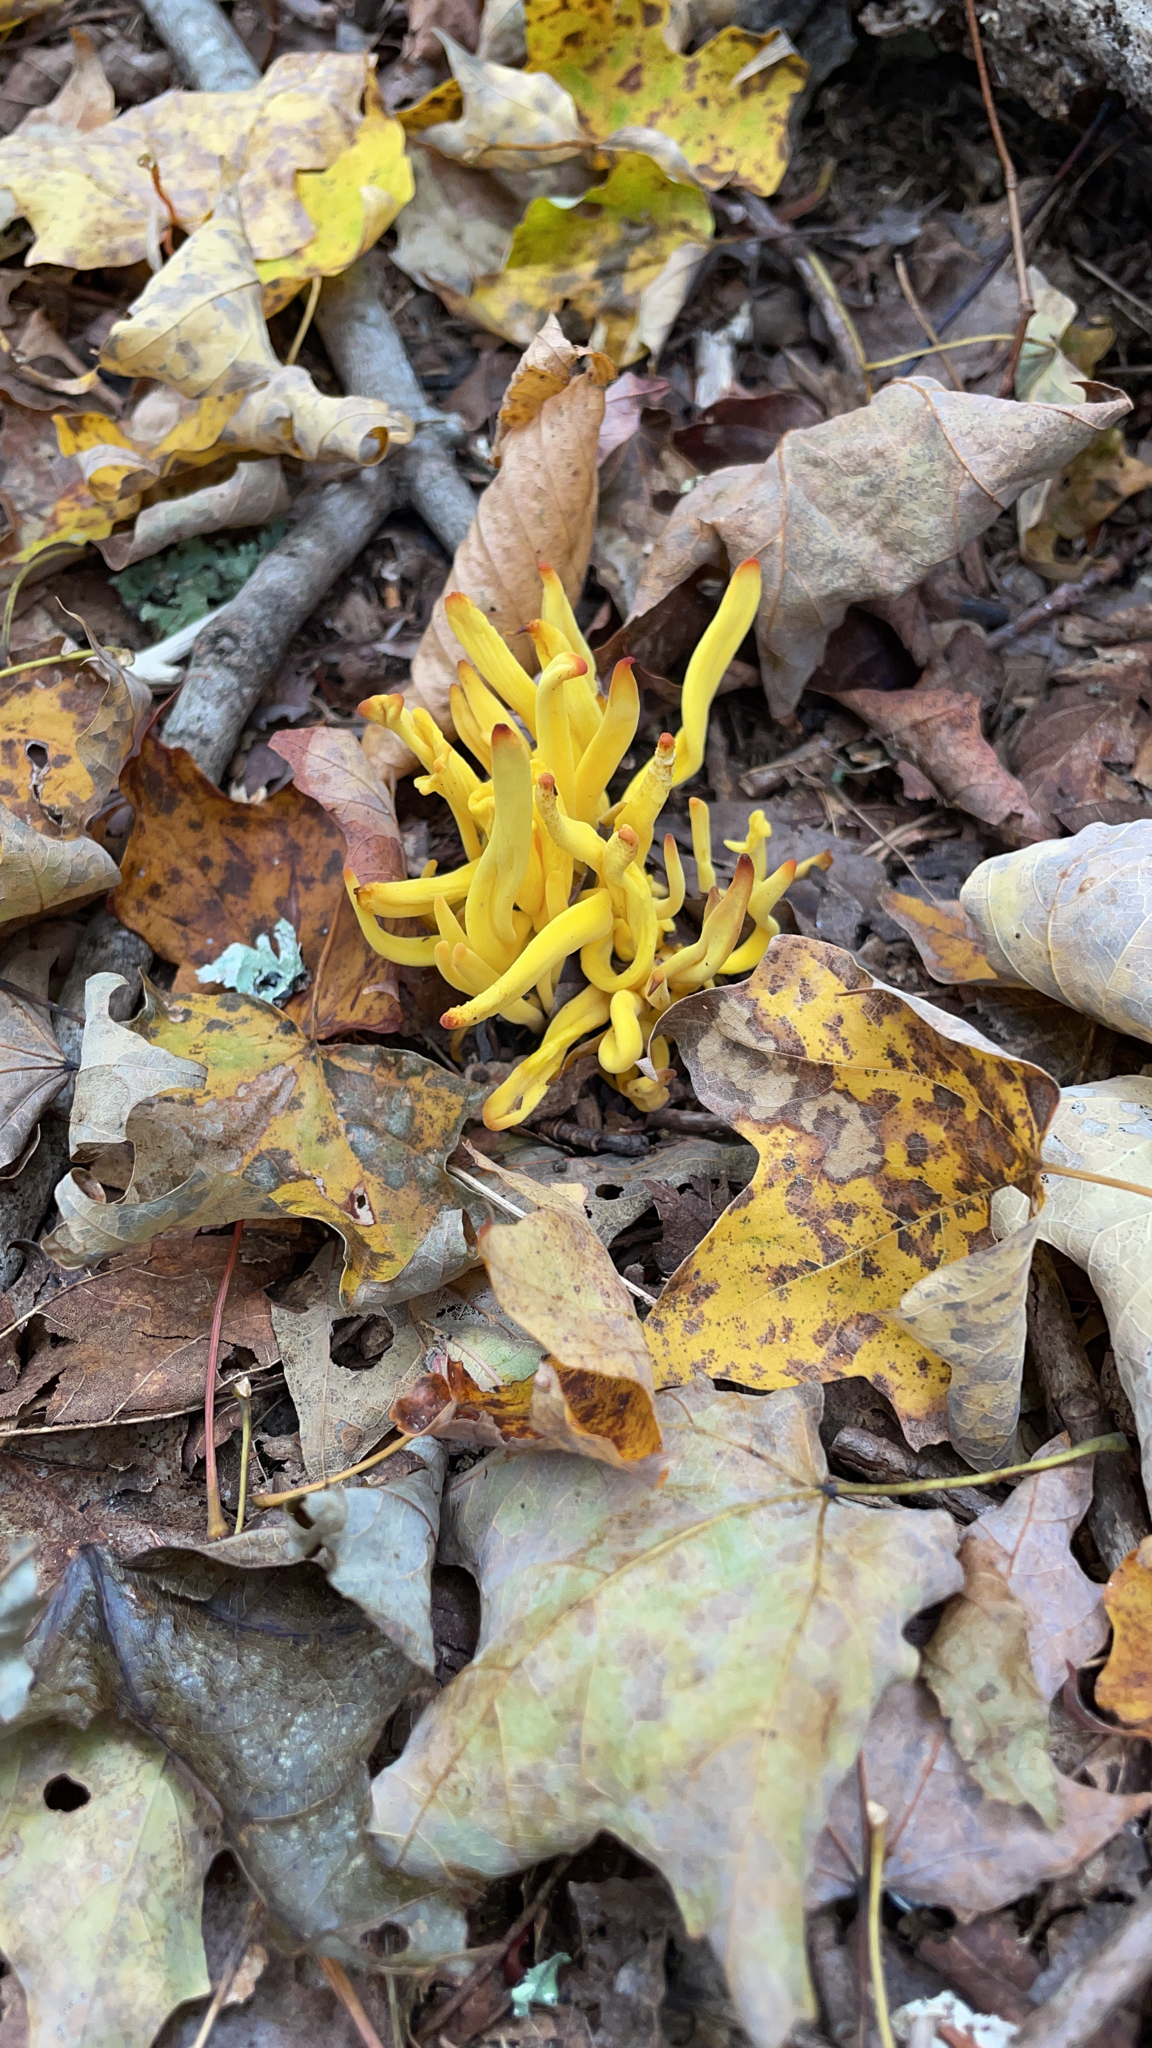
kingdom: Fungi
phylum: Basidiomycota
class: Agaricomycetes
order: Agaricales
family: Clavariaceae
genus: Clavulinopsis
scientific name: Clavulinopsis fusiformis
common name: Golden spindles
